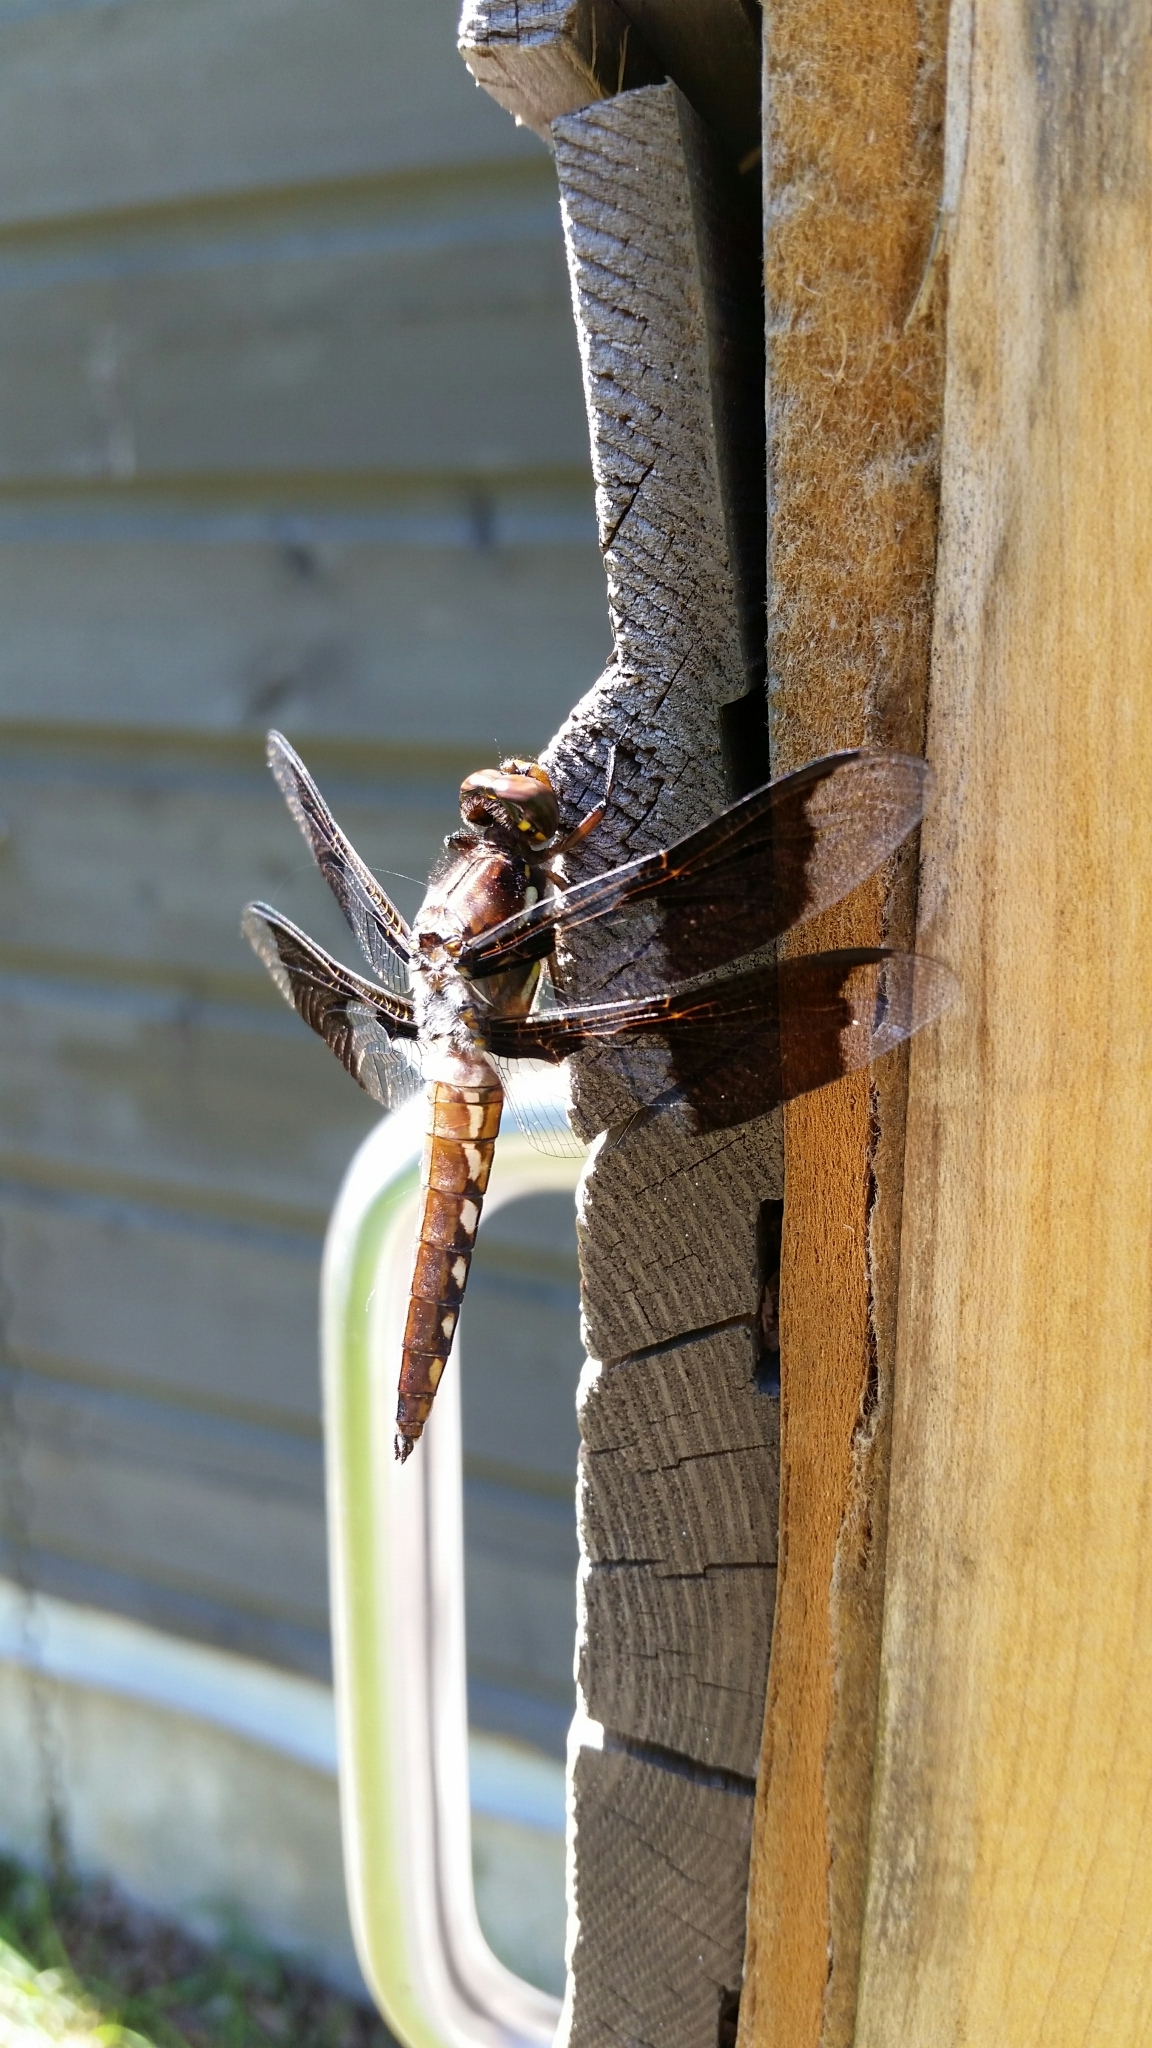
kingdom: Animalia
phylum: Arthropoda
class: Insecta
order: Odonata
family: Libellulidae
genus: Plathemis
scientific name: Plathemis lydia
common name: Common whitetail
